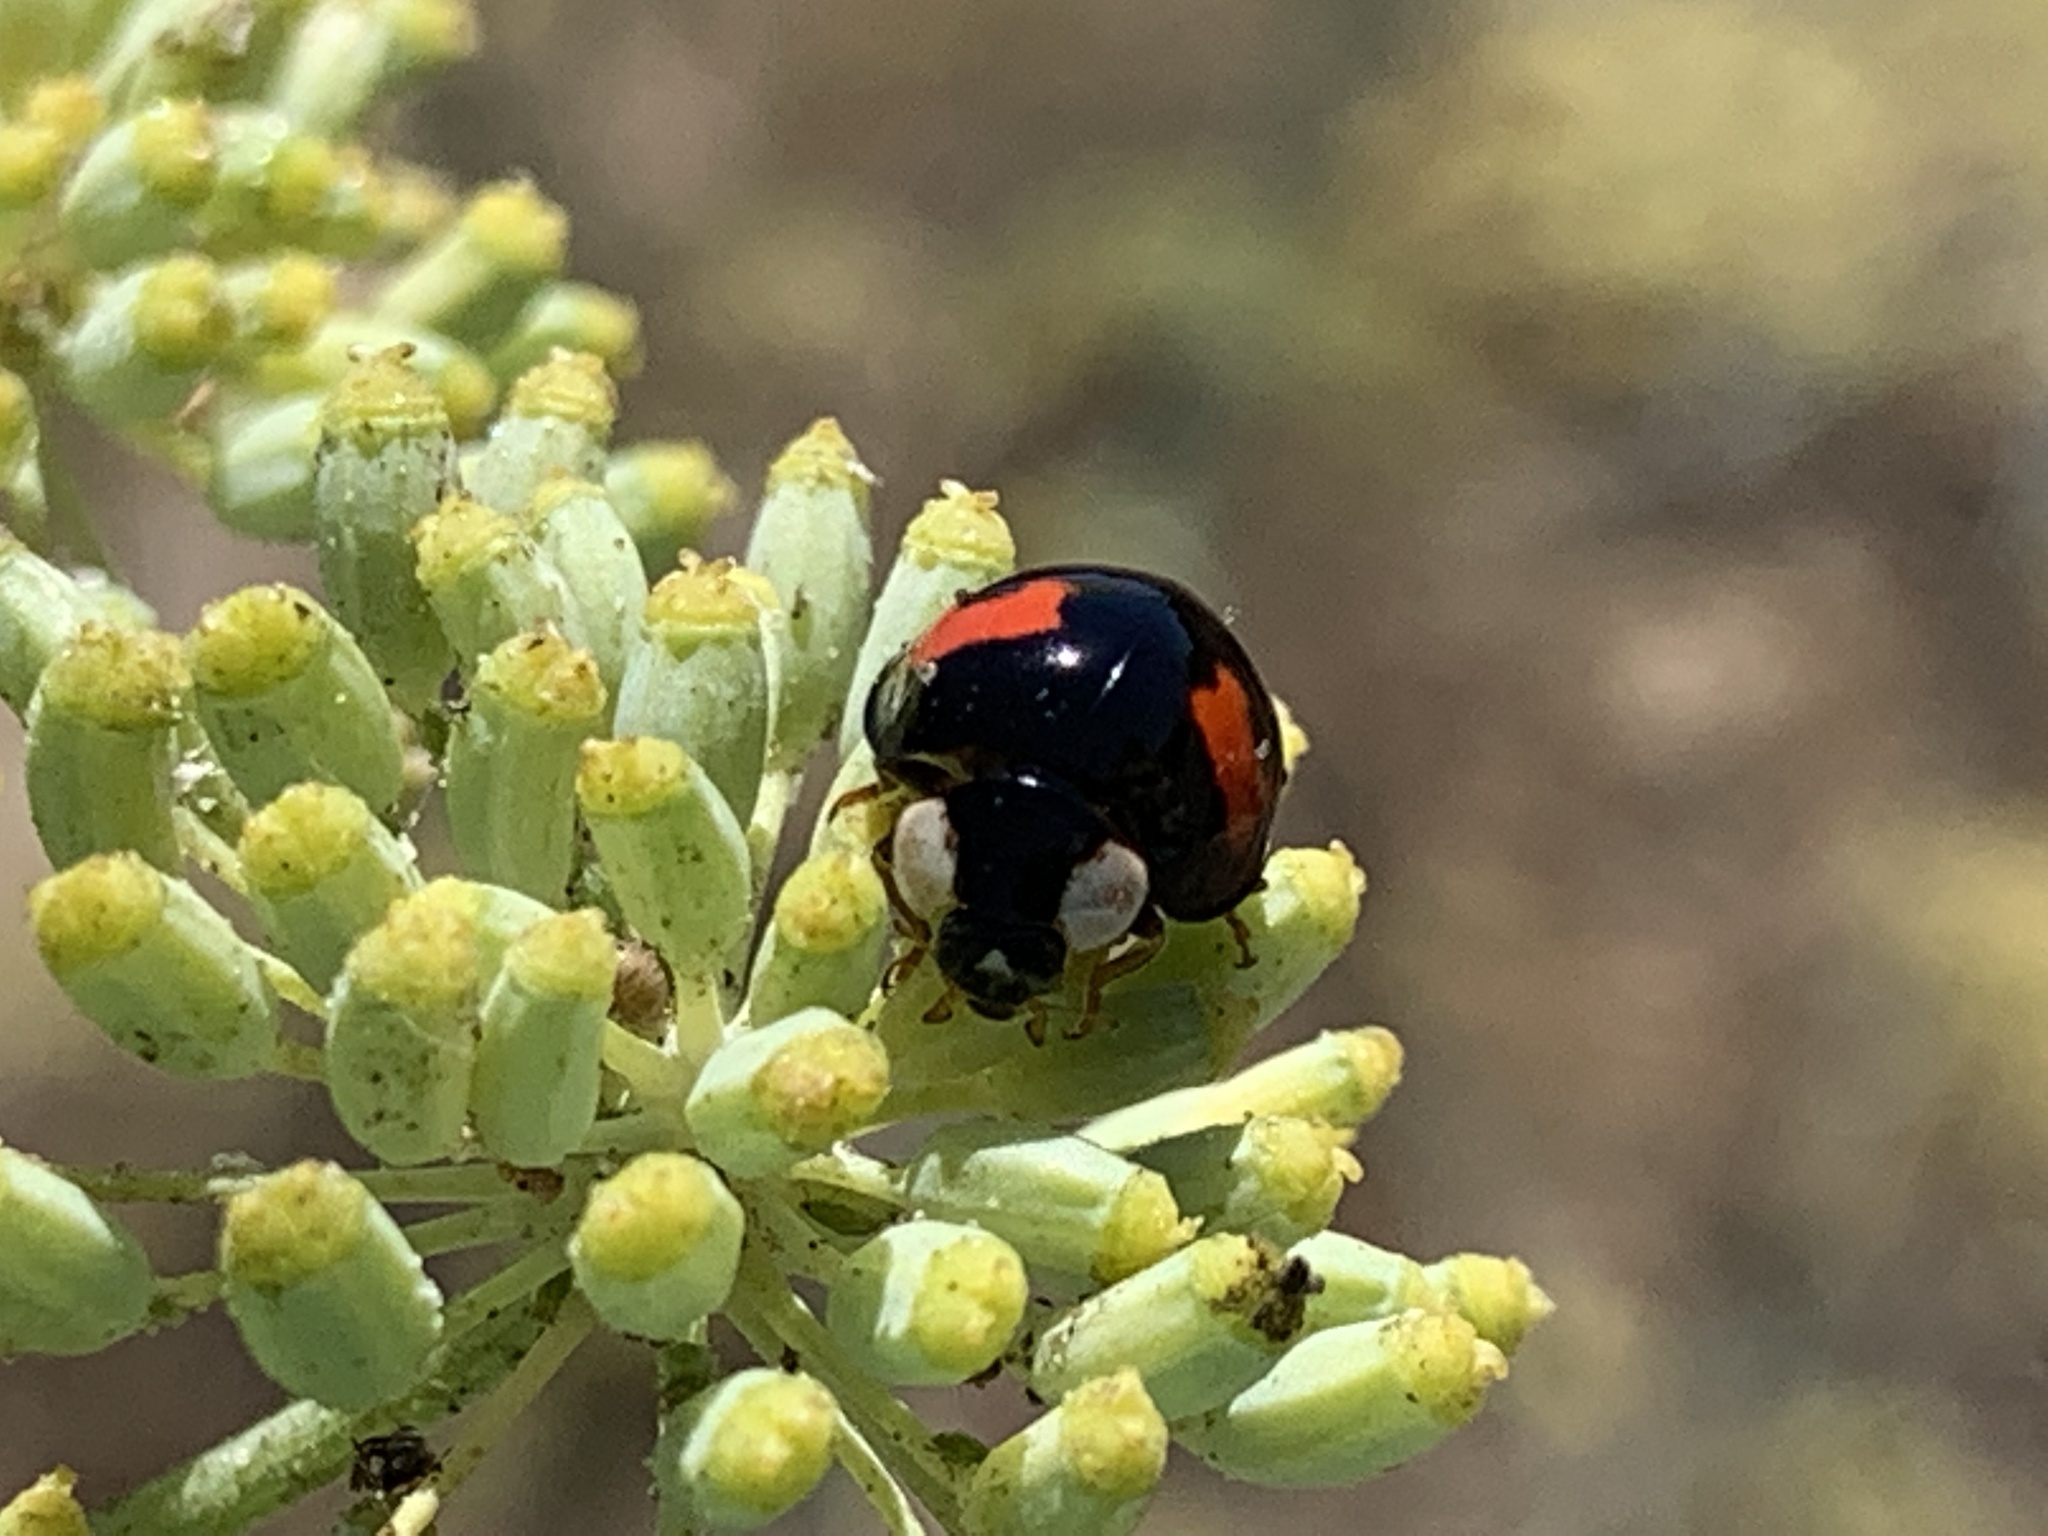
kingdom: Animalia
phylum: Arthropoda
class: Insecta
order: Coleoptera
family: Coccinellidae
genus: Harmonia
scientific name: Harmonia axyridis
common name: Harlequin ladybird
